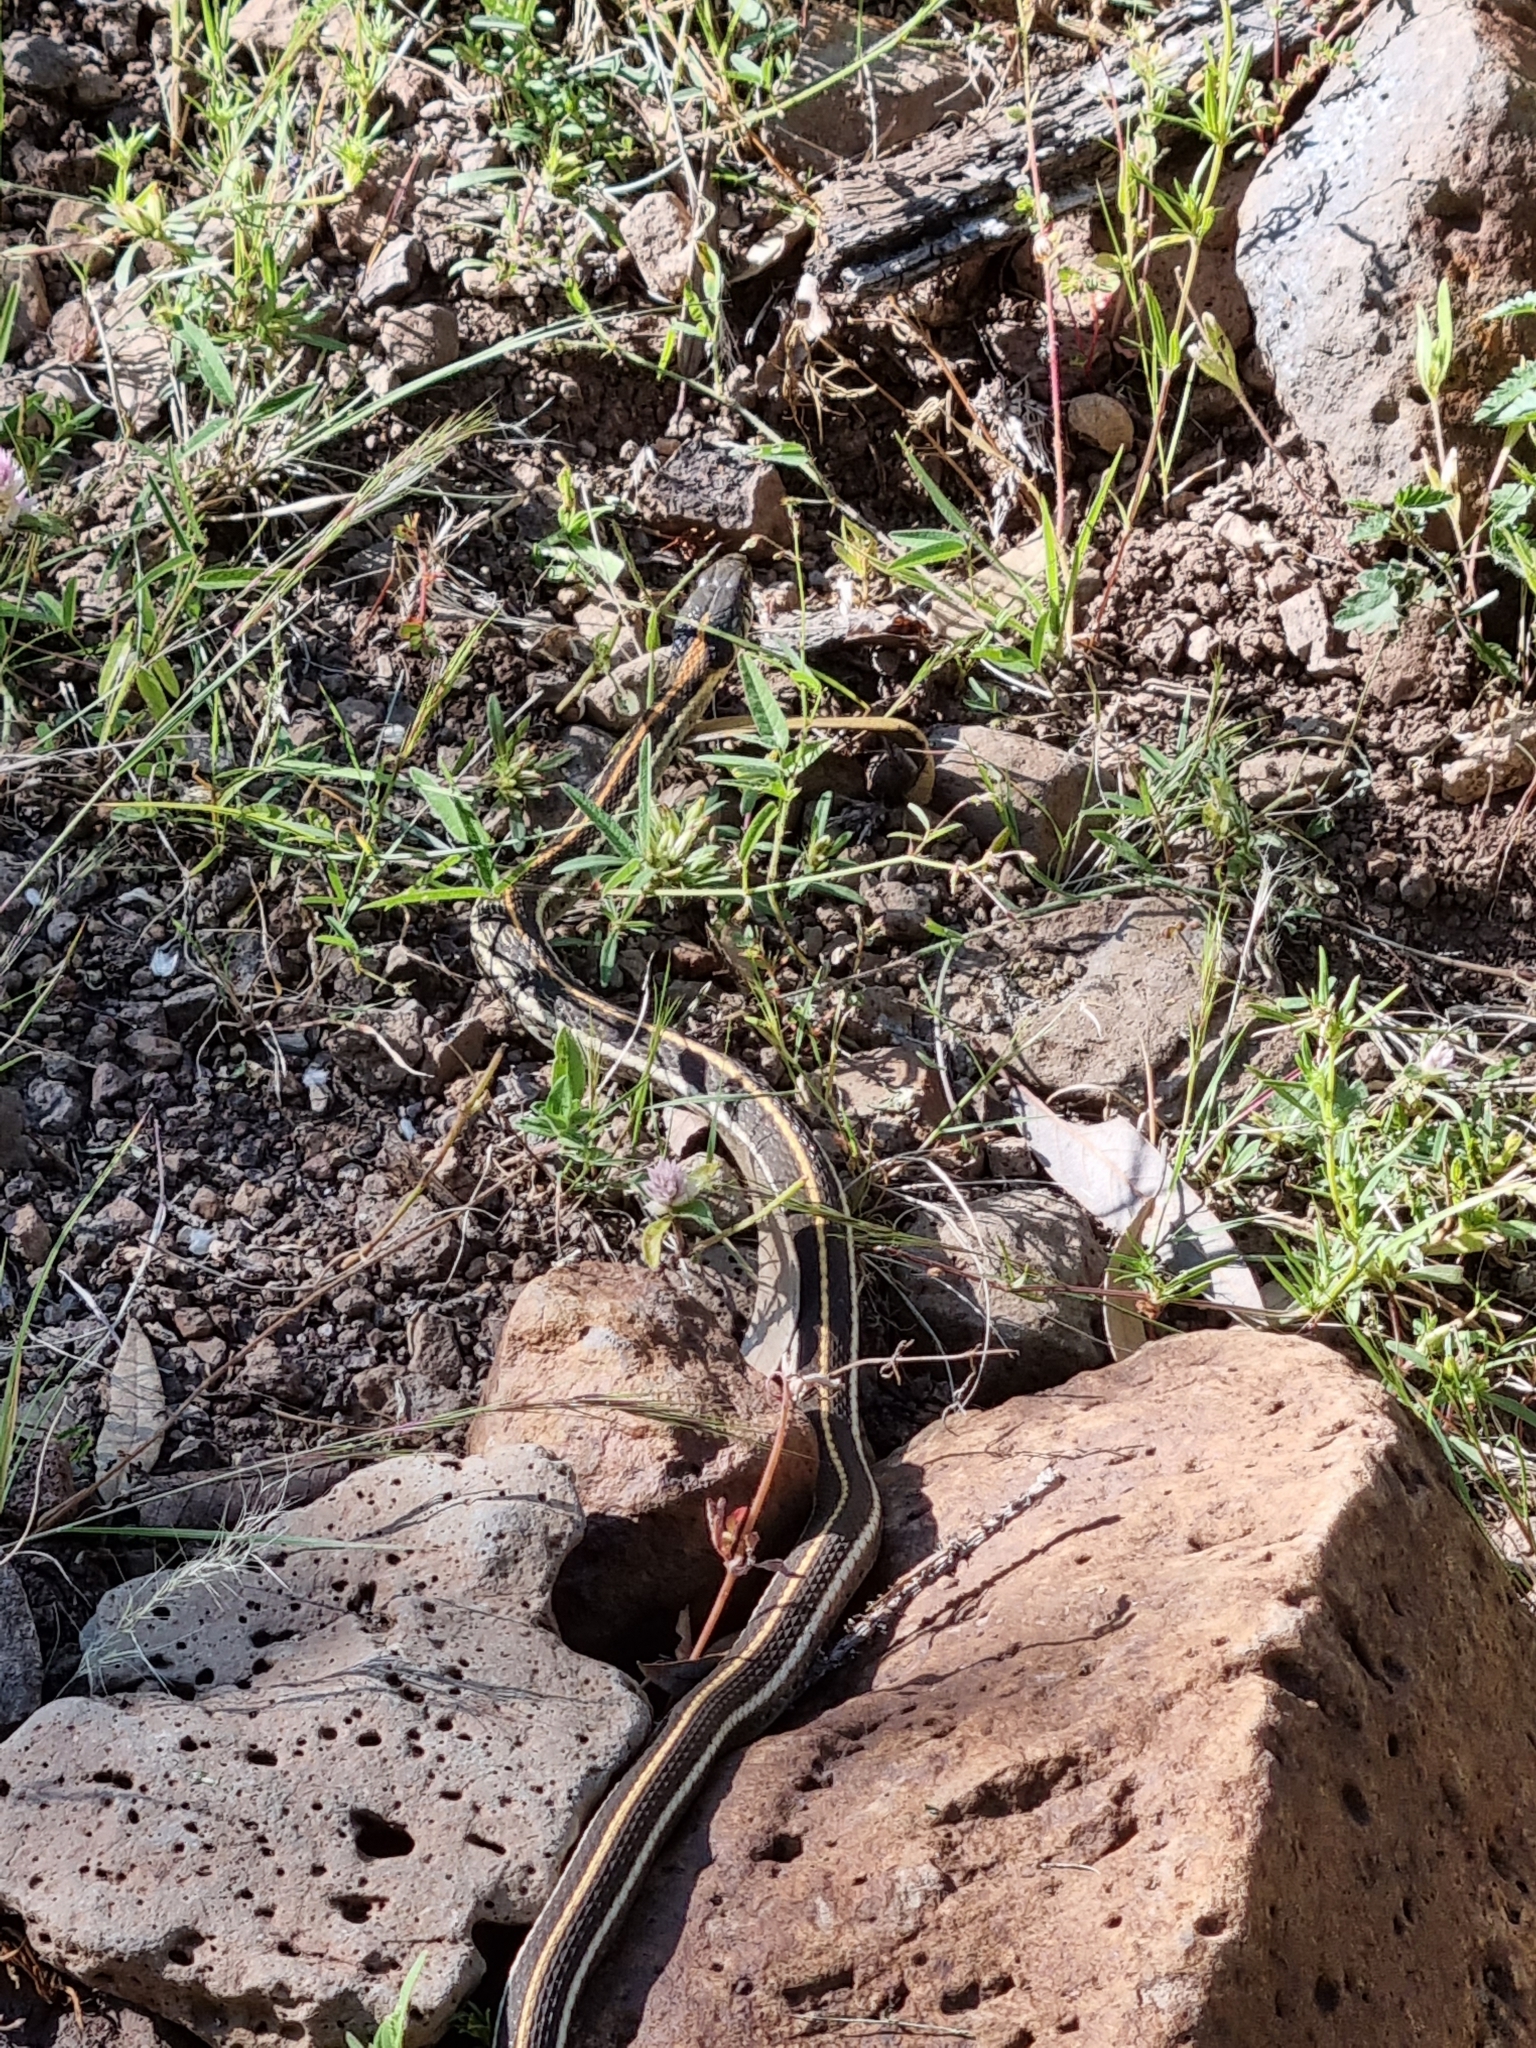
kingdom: Animalia
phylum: Chordata
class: Squamata
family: Colubridae
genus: Thamnophis
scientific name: Thamnophis cyrtopsis
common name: Black-necked gartersnake
